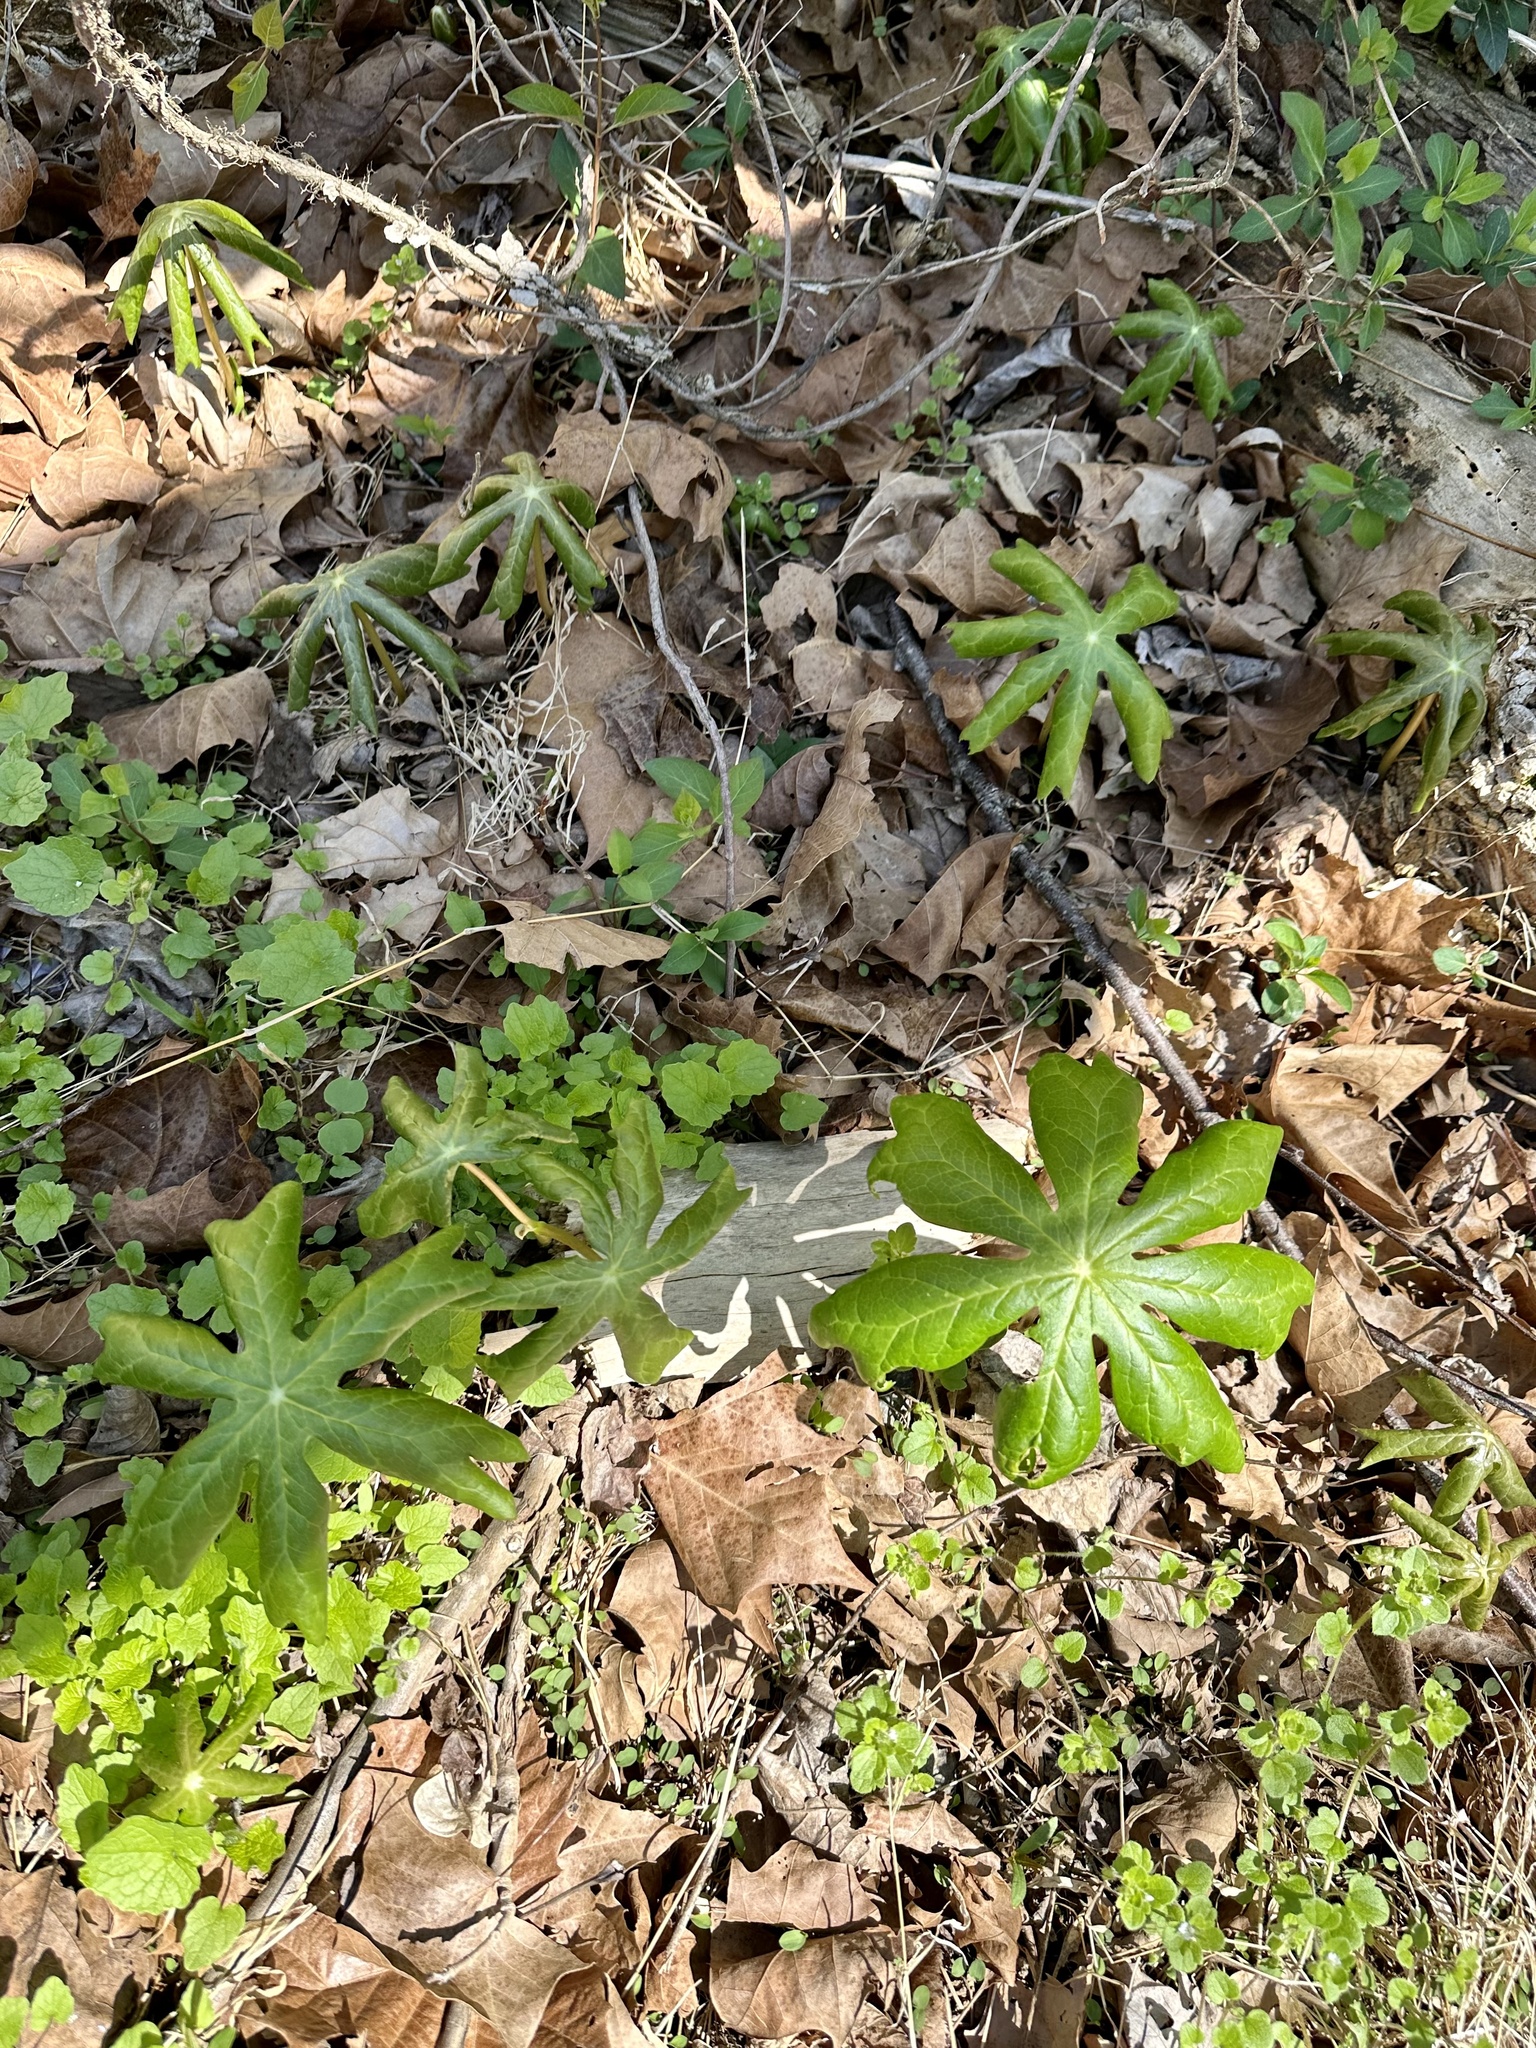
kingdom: Plantae
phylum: Tracheophyta
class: Magnoliopsida
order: Ranunculales
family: Berberidaceae
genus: Podophyllum
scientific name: Podophyllum peltatum
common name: Wild mandrake
